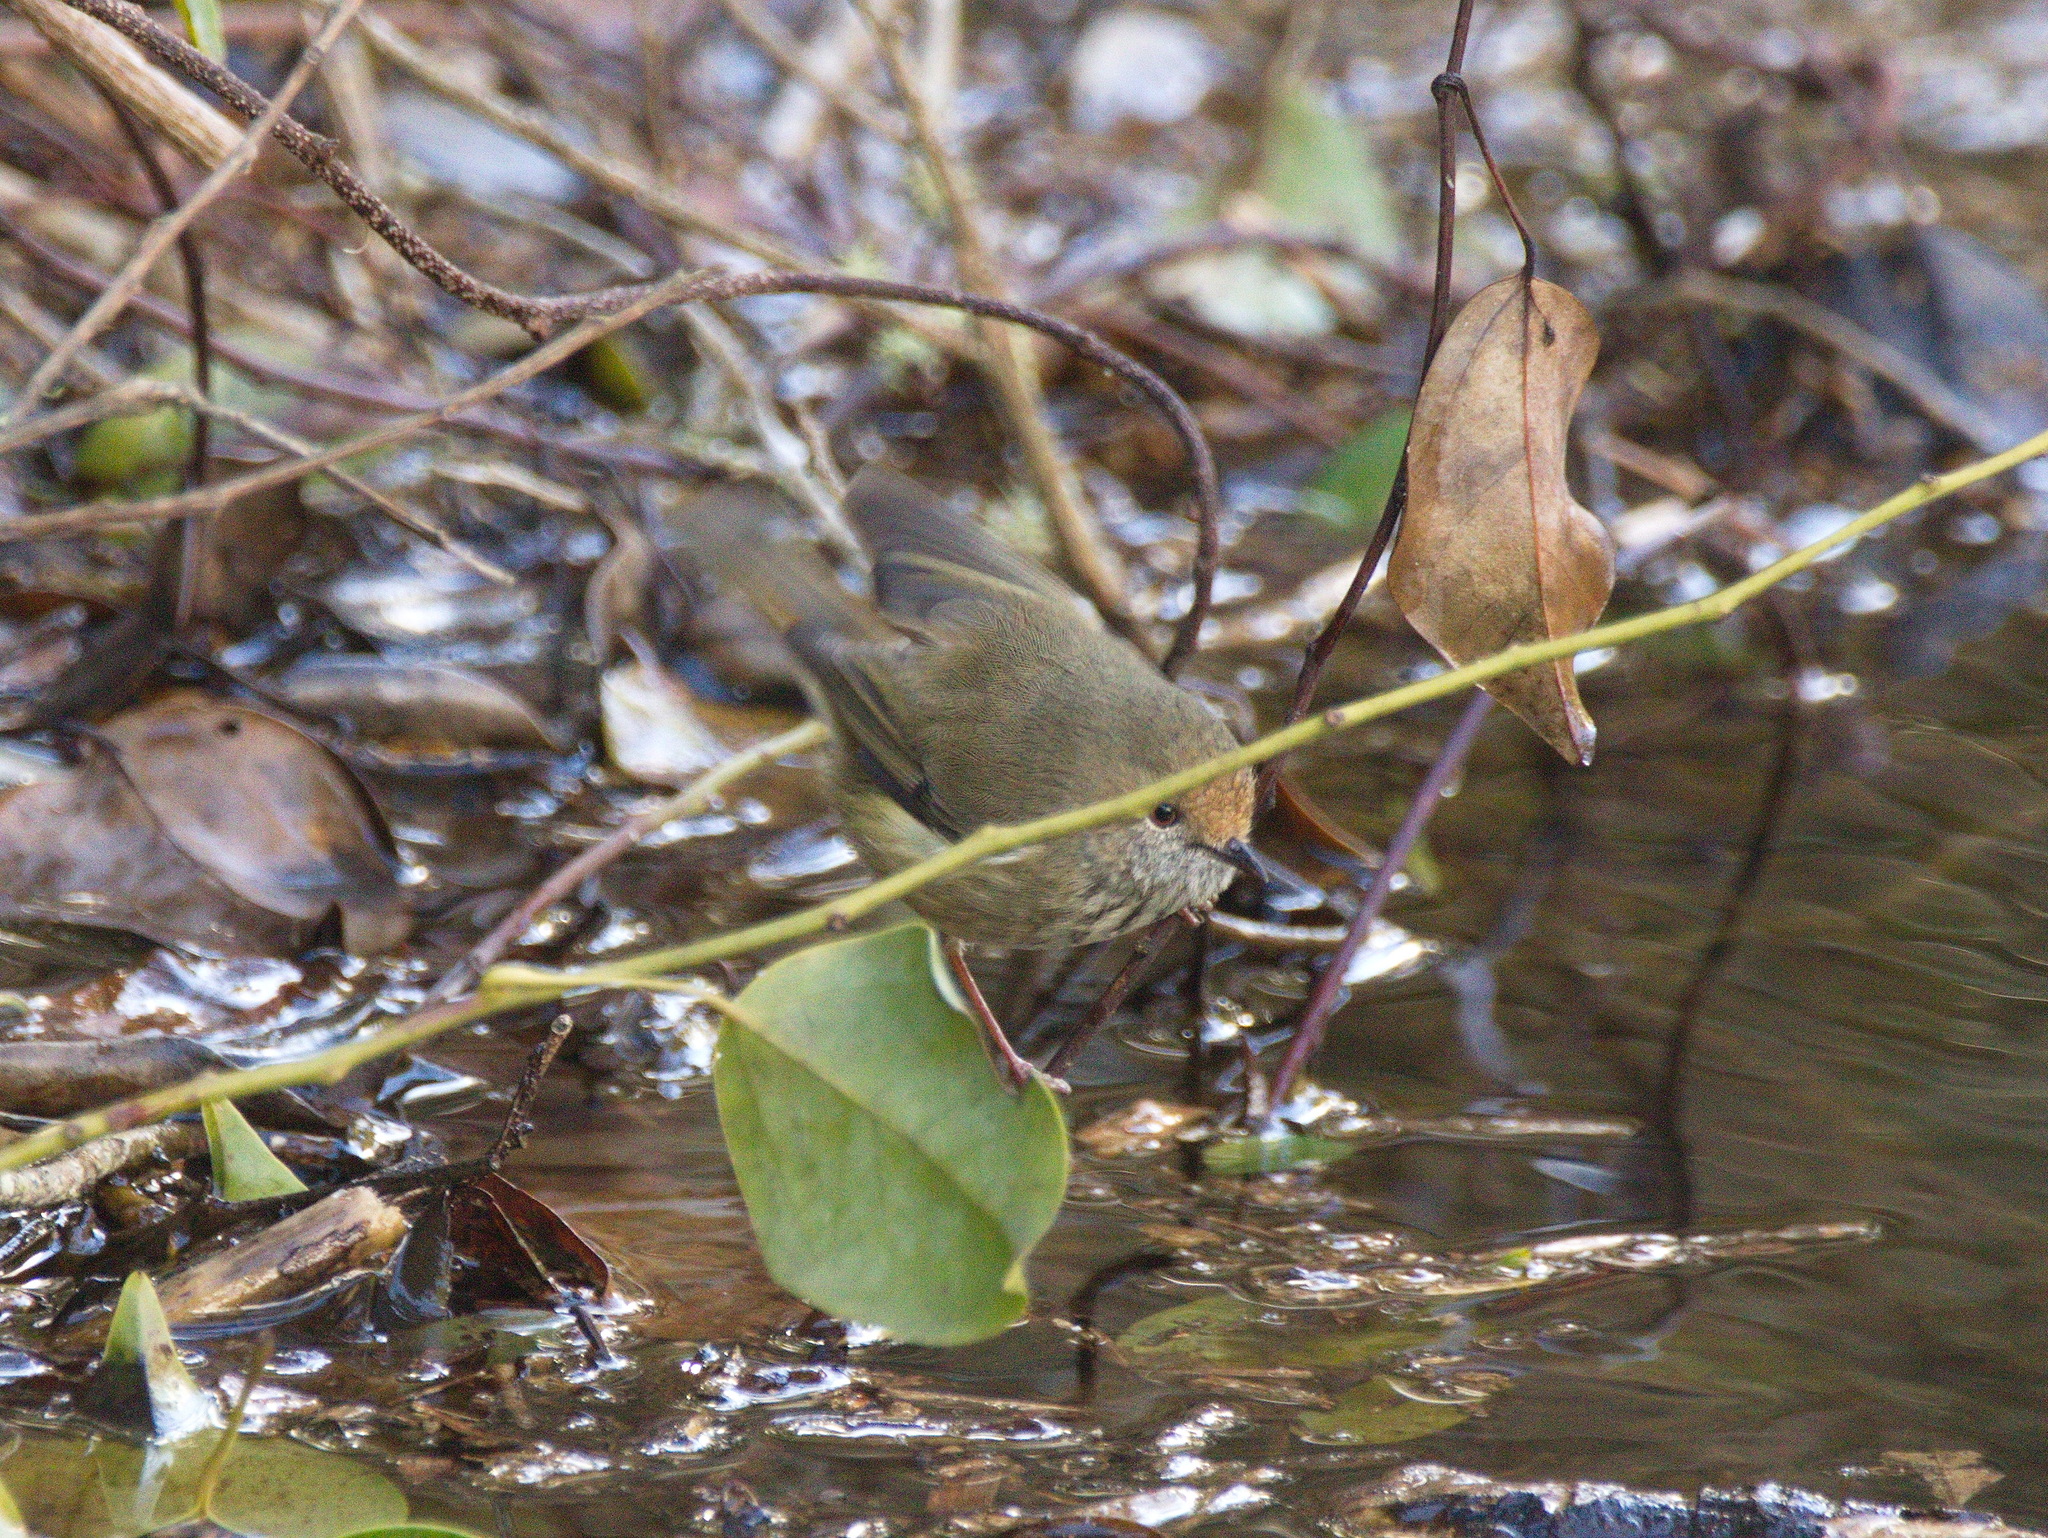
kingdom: Animalia
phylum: Chordata
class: Aves
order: Passeriformes
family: Acanthizidae
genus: Acanthiza
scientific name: Acanthiza pusilla
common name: Brown thornbill
